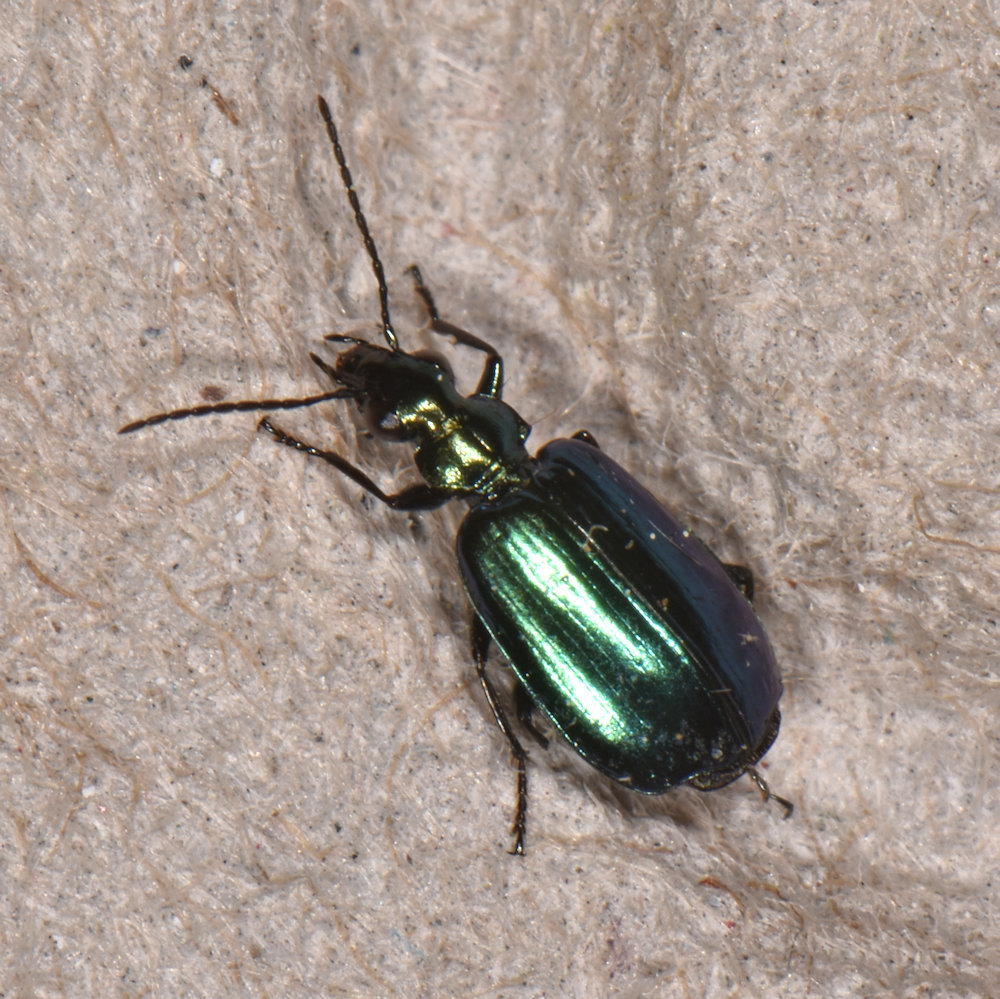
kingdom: Animalia
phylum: Arthropoda
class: Insecta
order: Coleoptera
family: Carabidae
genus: Lebia
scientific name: Lebia viridis
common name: Flower lebia beetle
